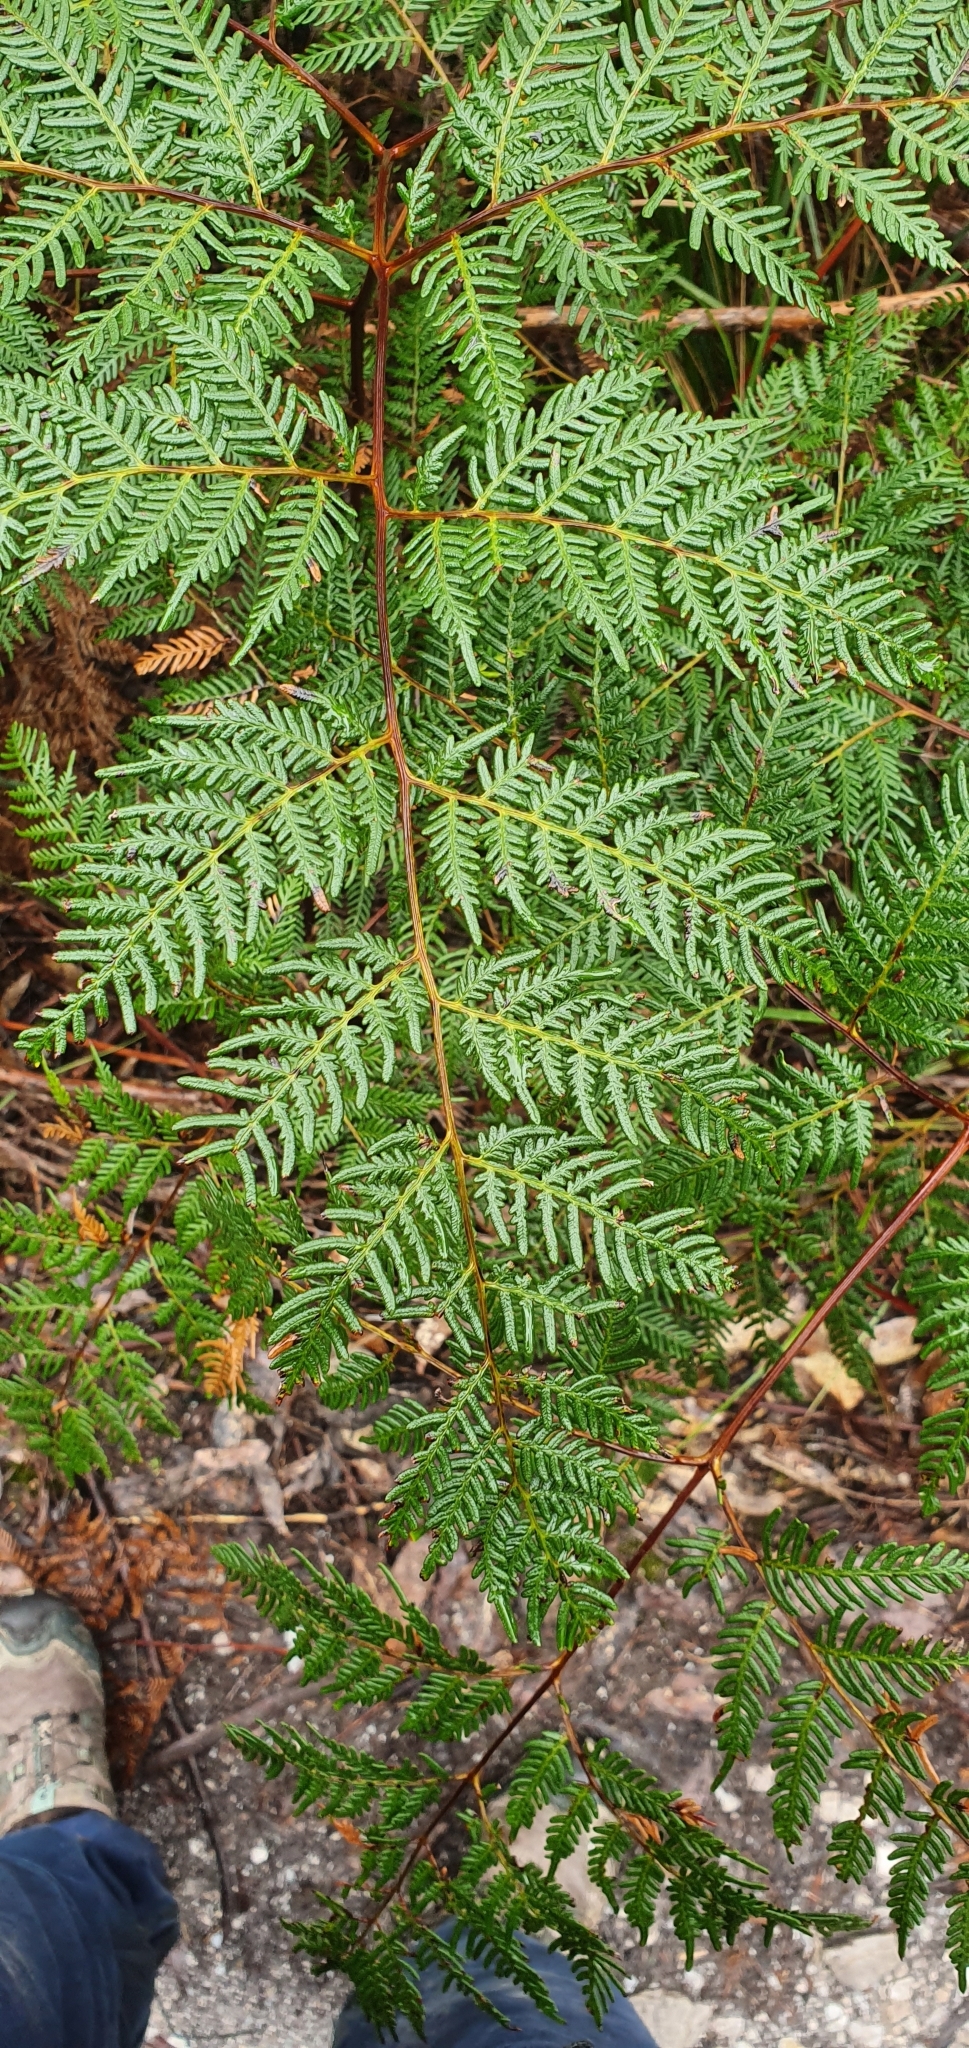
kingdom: Plantae
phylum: Tracheophyta
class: Polypodiopsida
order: Polypodiales
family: Dennstaedtiaceae
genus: Pteridium
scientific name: Pteridium esculentum
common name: Bracken fern
